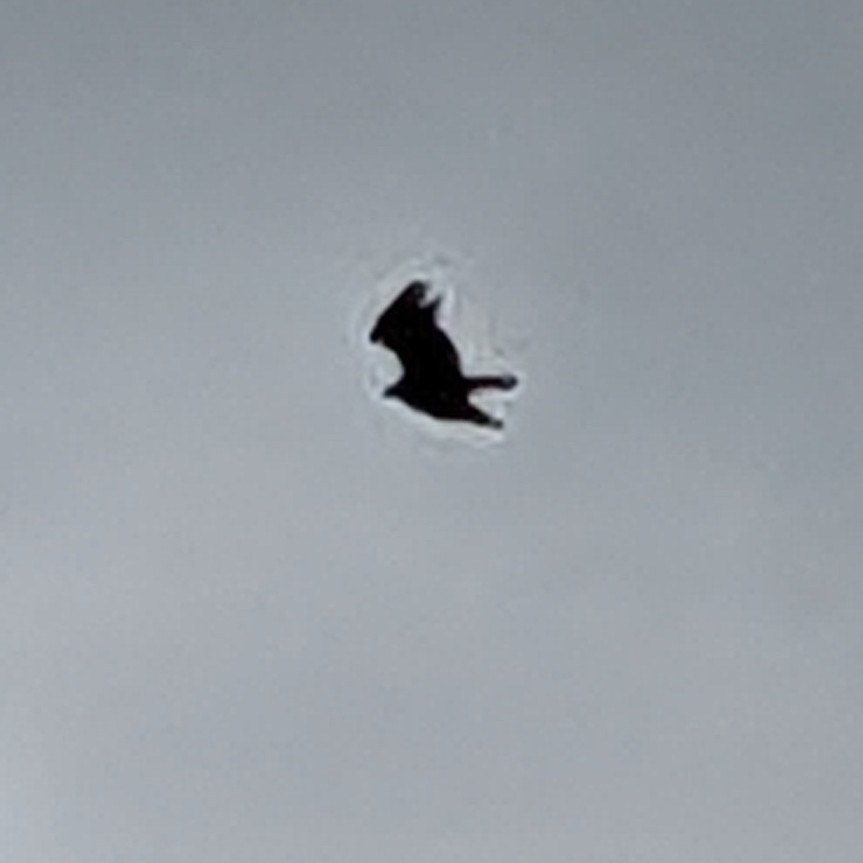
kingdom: Animalia
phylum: Chordata
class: Aves
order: Accipitriformes
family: Cathartidae
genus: Cathartes
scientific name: Cathartes aura
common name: Turkey vulture
